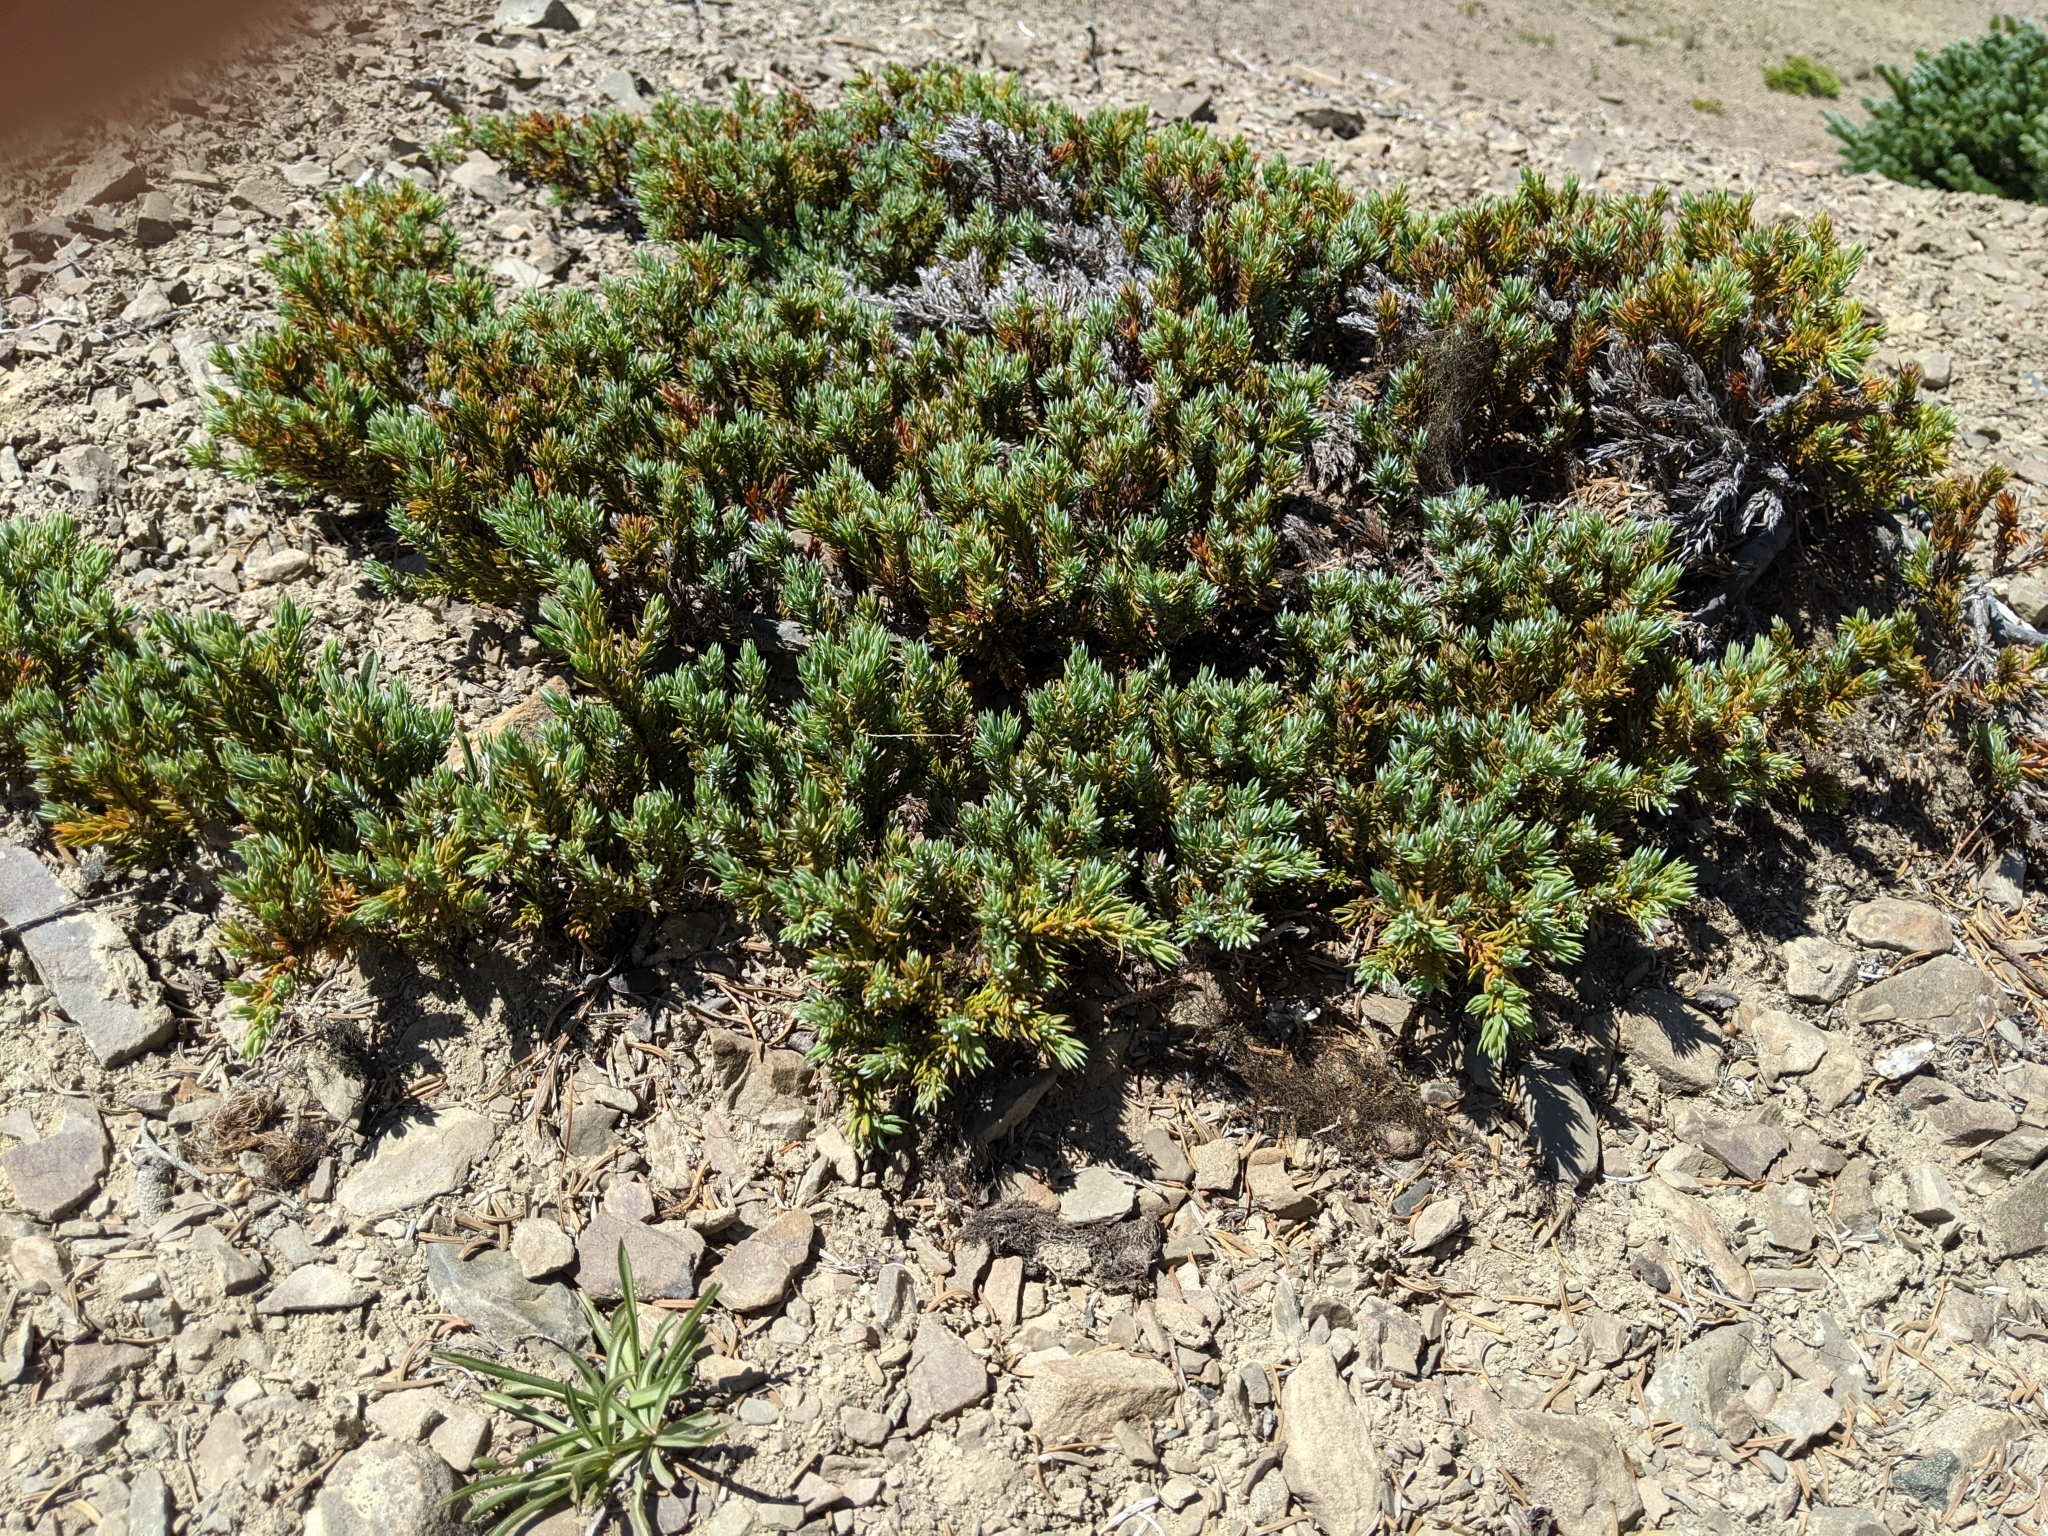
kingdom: Plantae
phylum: Tracheophyta
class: Pinopsida
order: Pinales
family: Cupressaceae
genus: Juniperus
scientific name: Juniperus communis
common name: Common juniper
